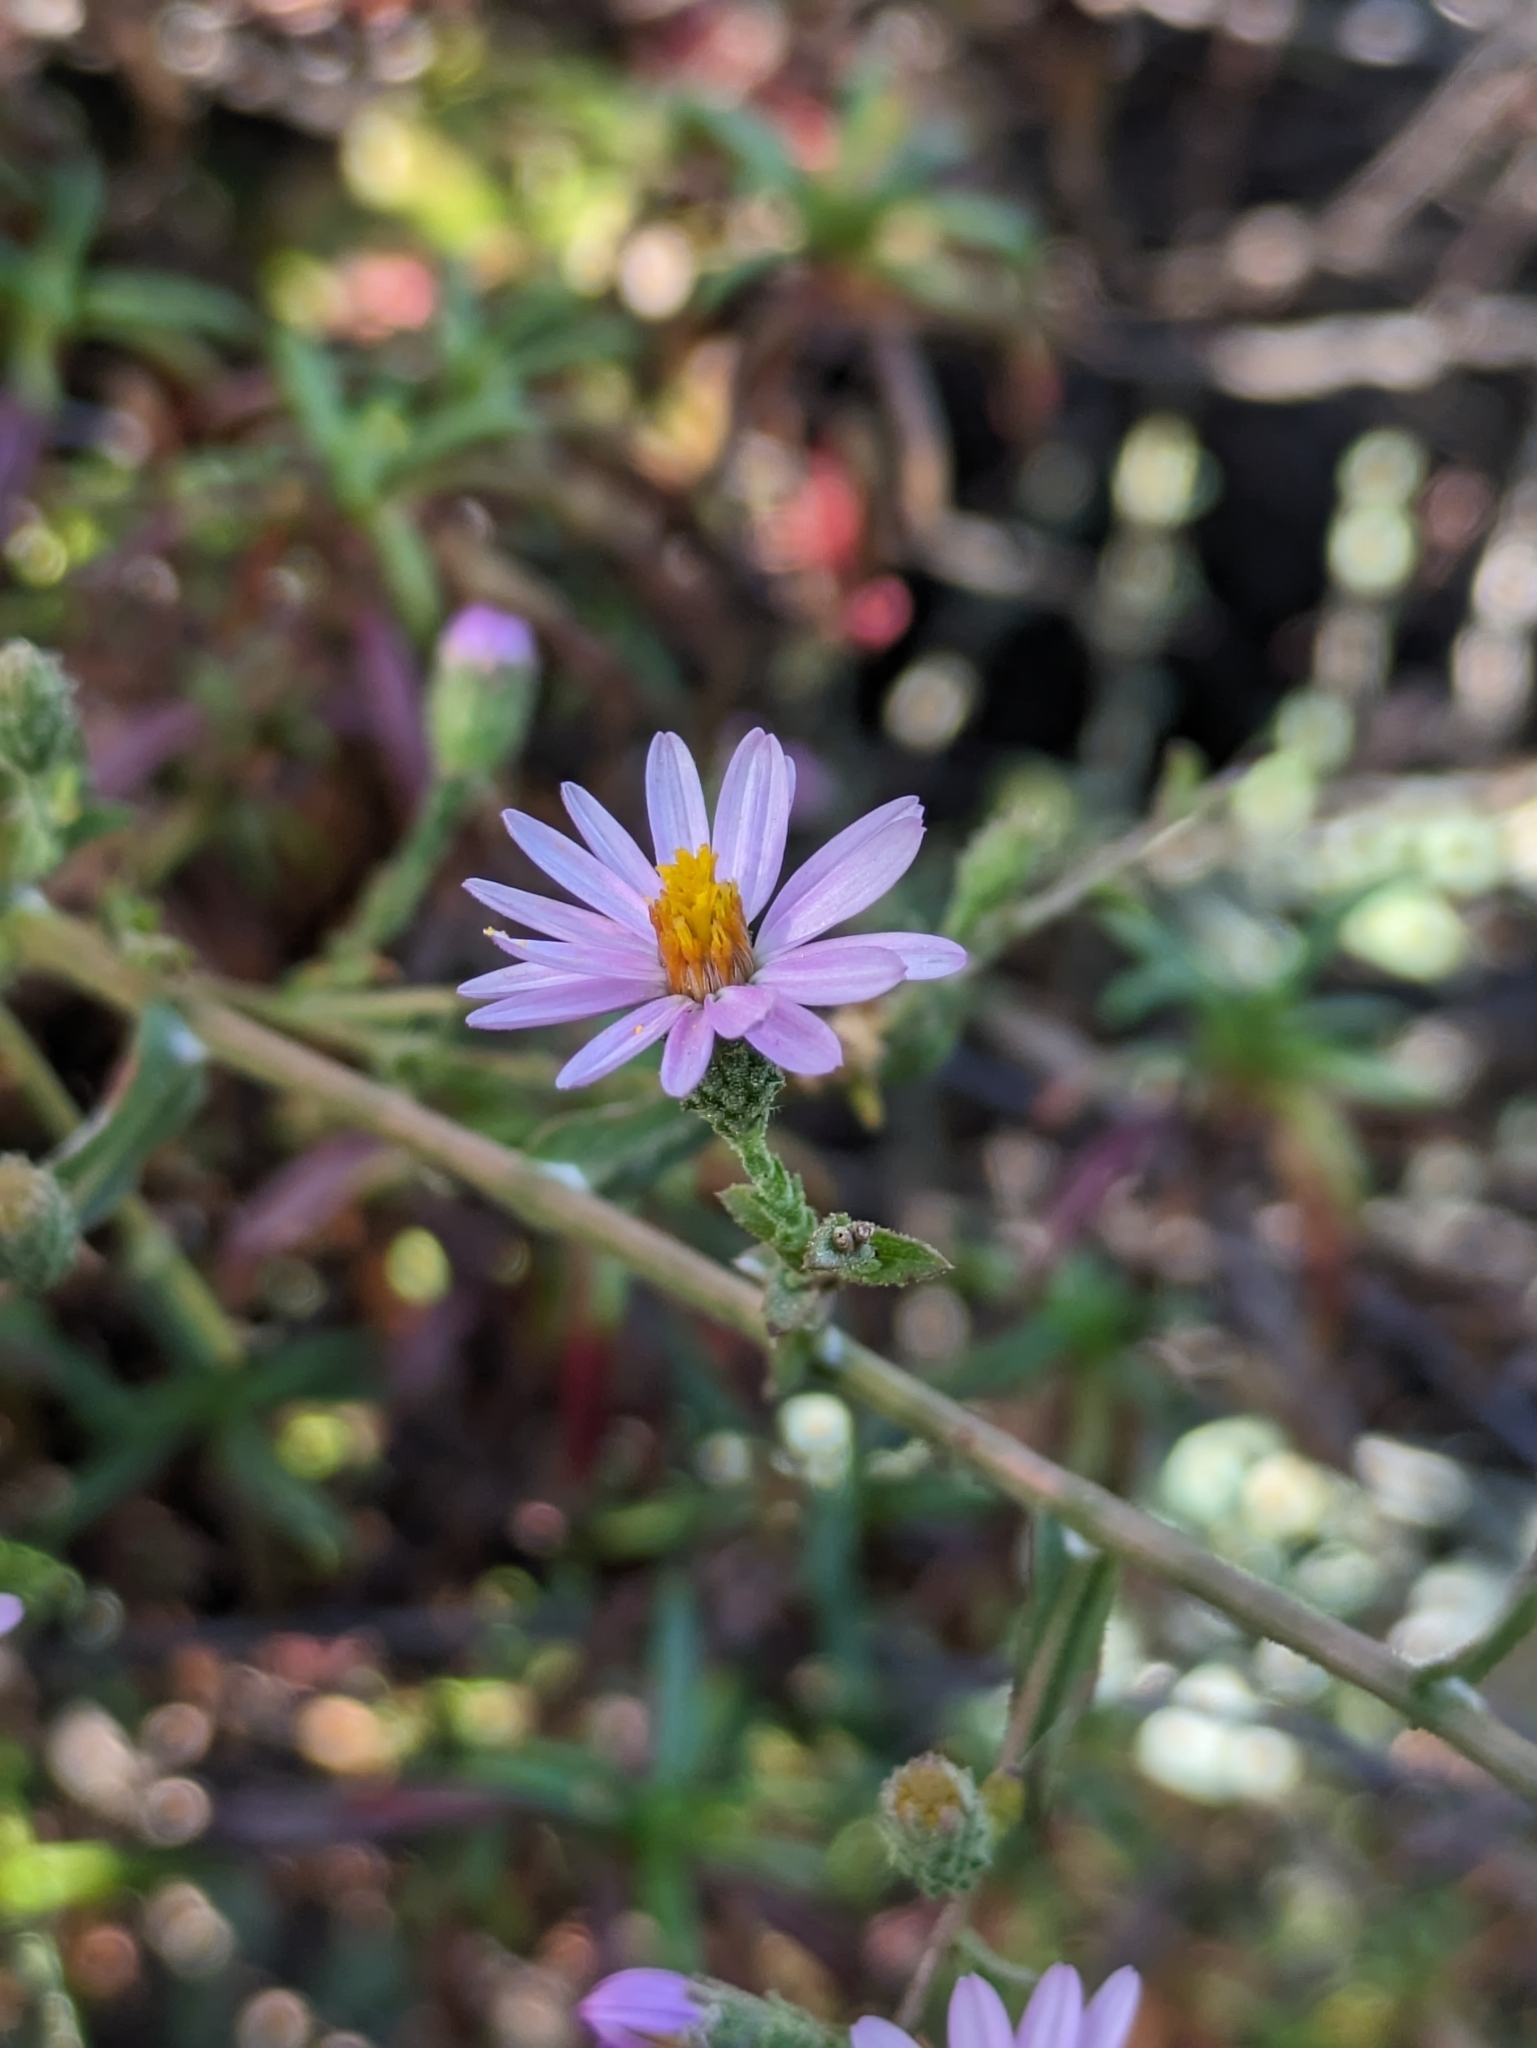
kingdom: Plantae
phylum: Tracheophyta
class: Magnoliopsida
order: Asterales
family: Asteraceae
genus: Corethrogyne
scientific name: Corethrogyne filaginifolia
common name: Sand-aster
